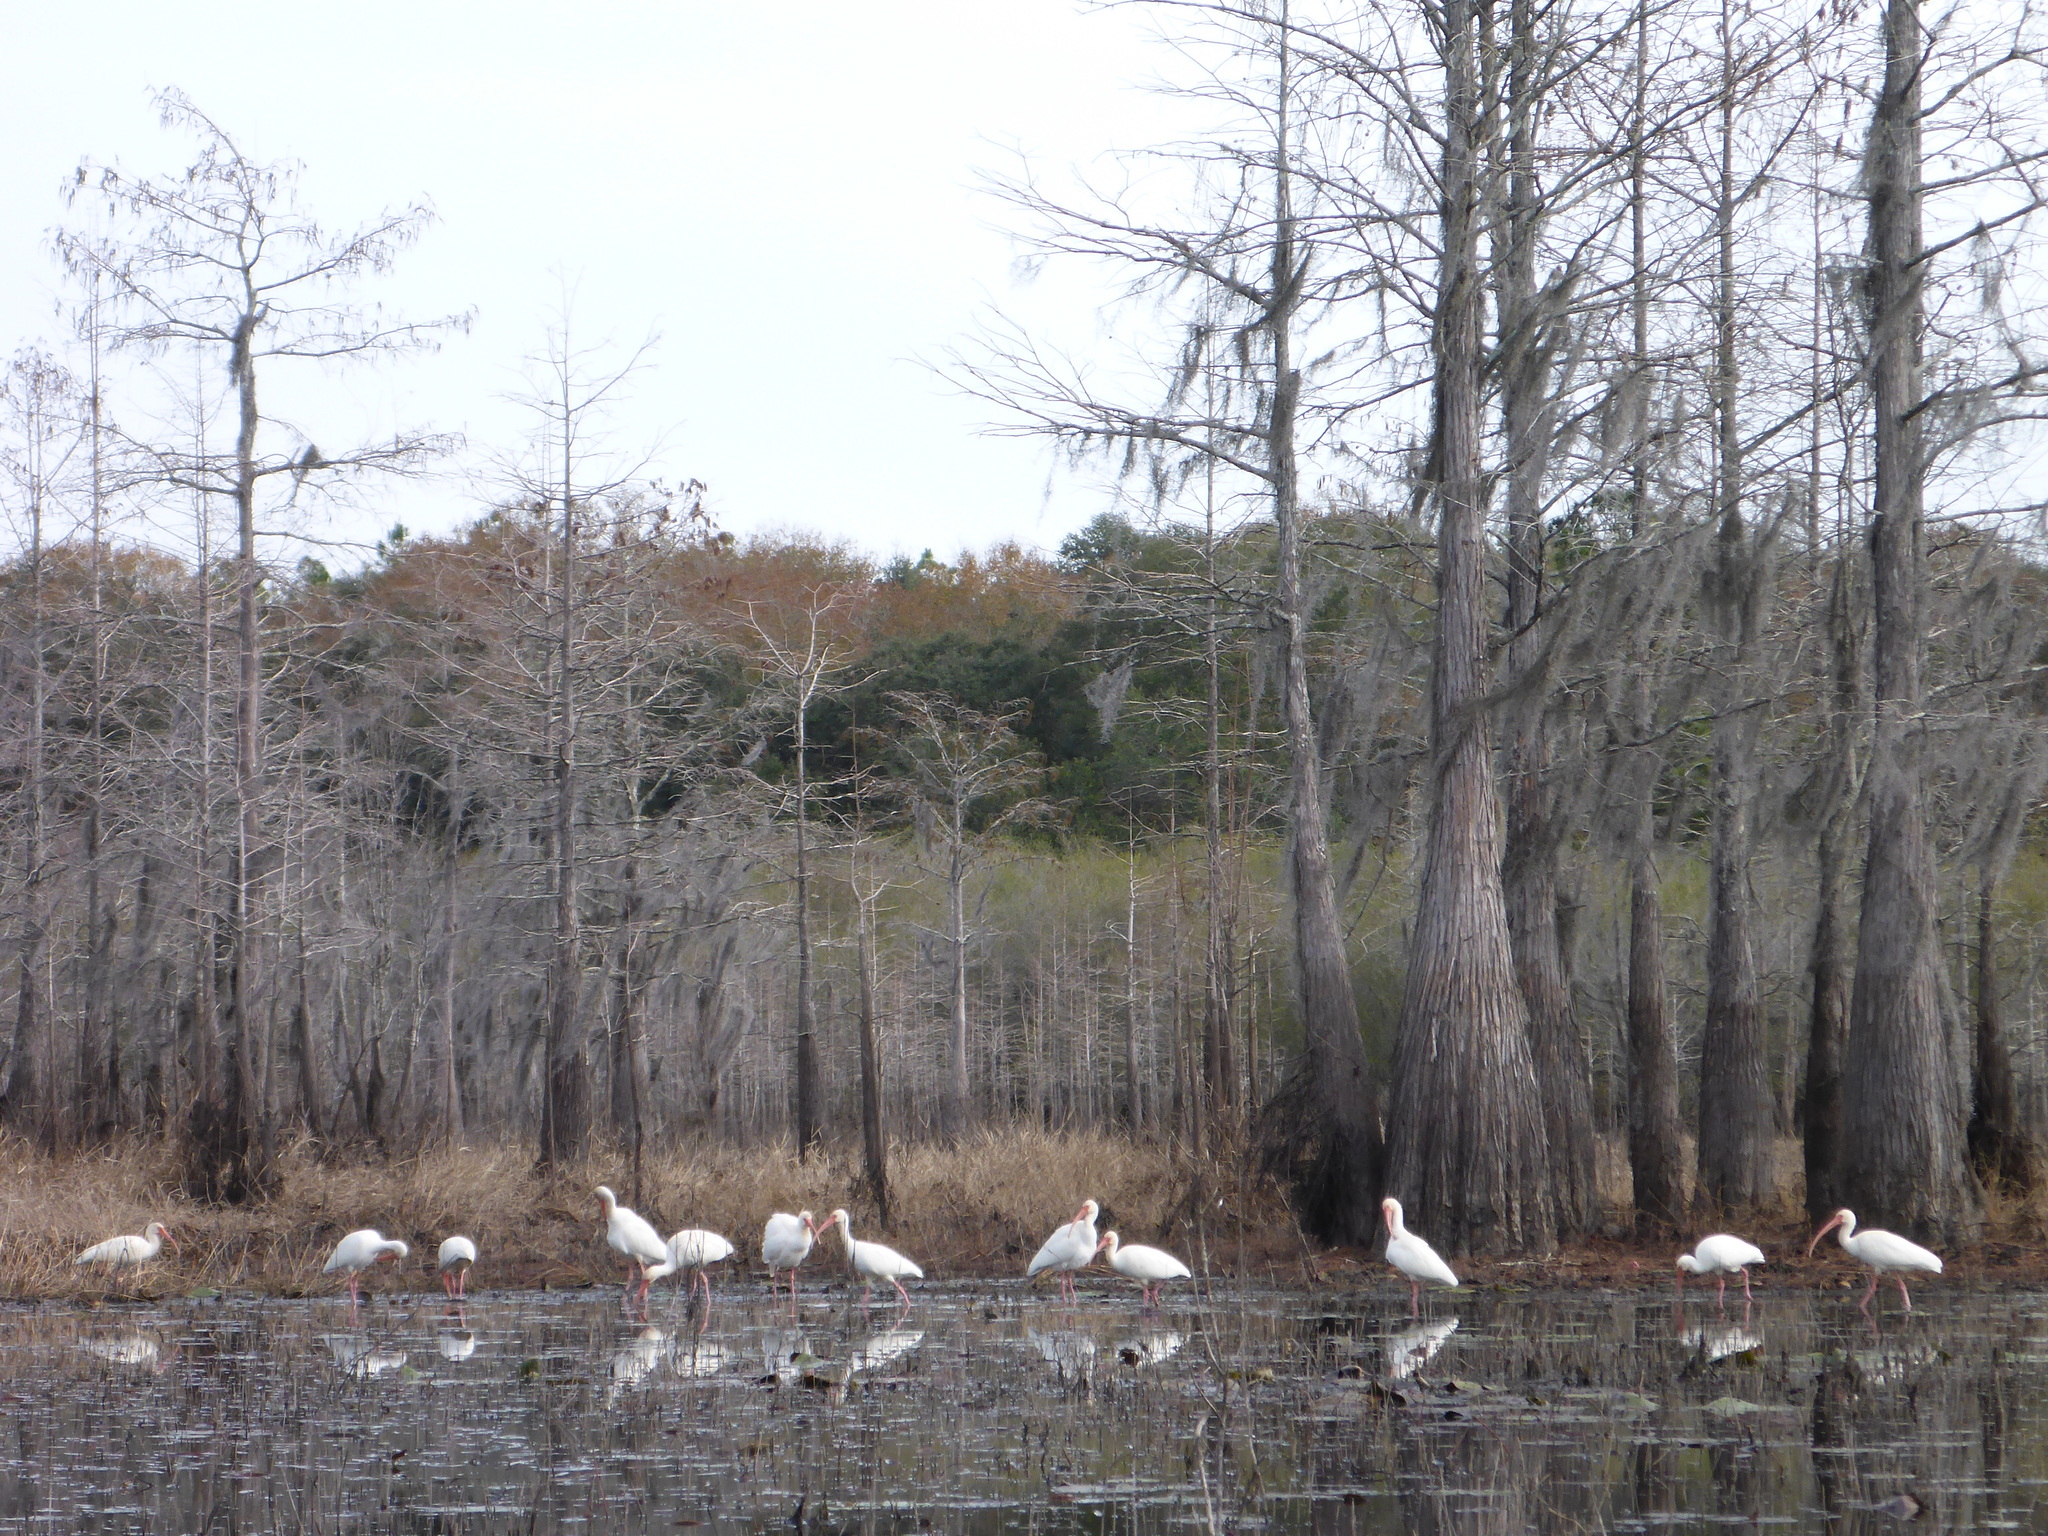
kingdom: Animalia
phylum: Chordata
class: Aves
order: Pelecaniformes
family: Threskiornithidae
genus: Eudocimus
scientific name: Eudocimus albus
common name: White ibis
